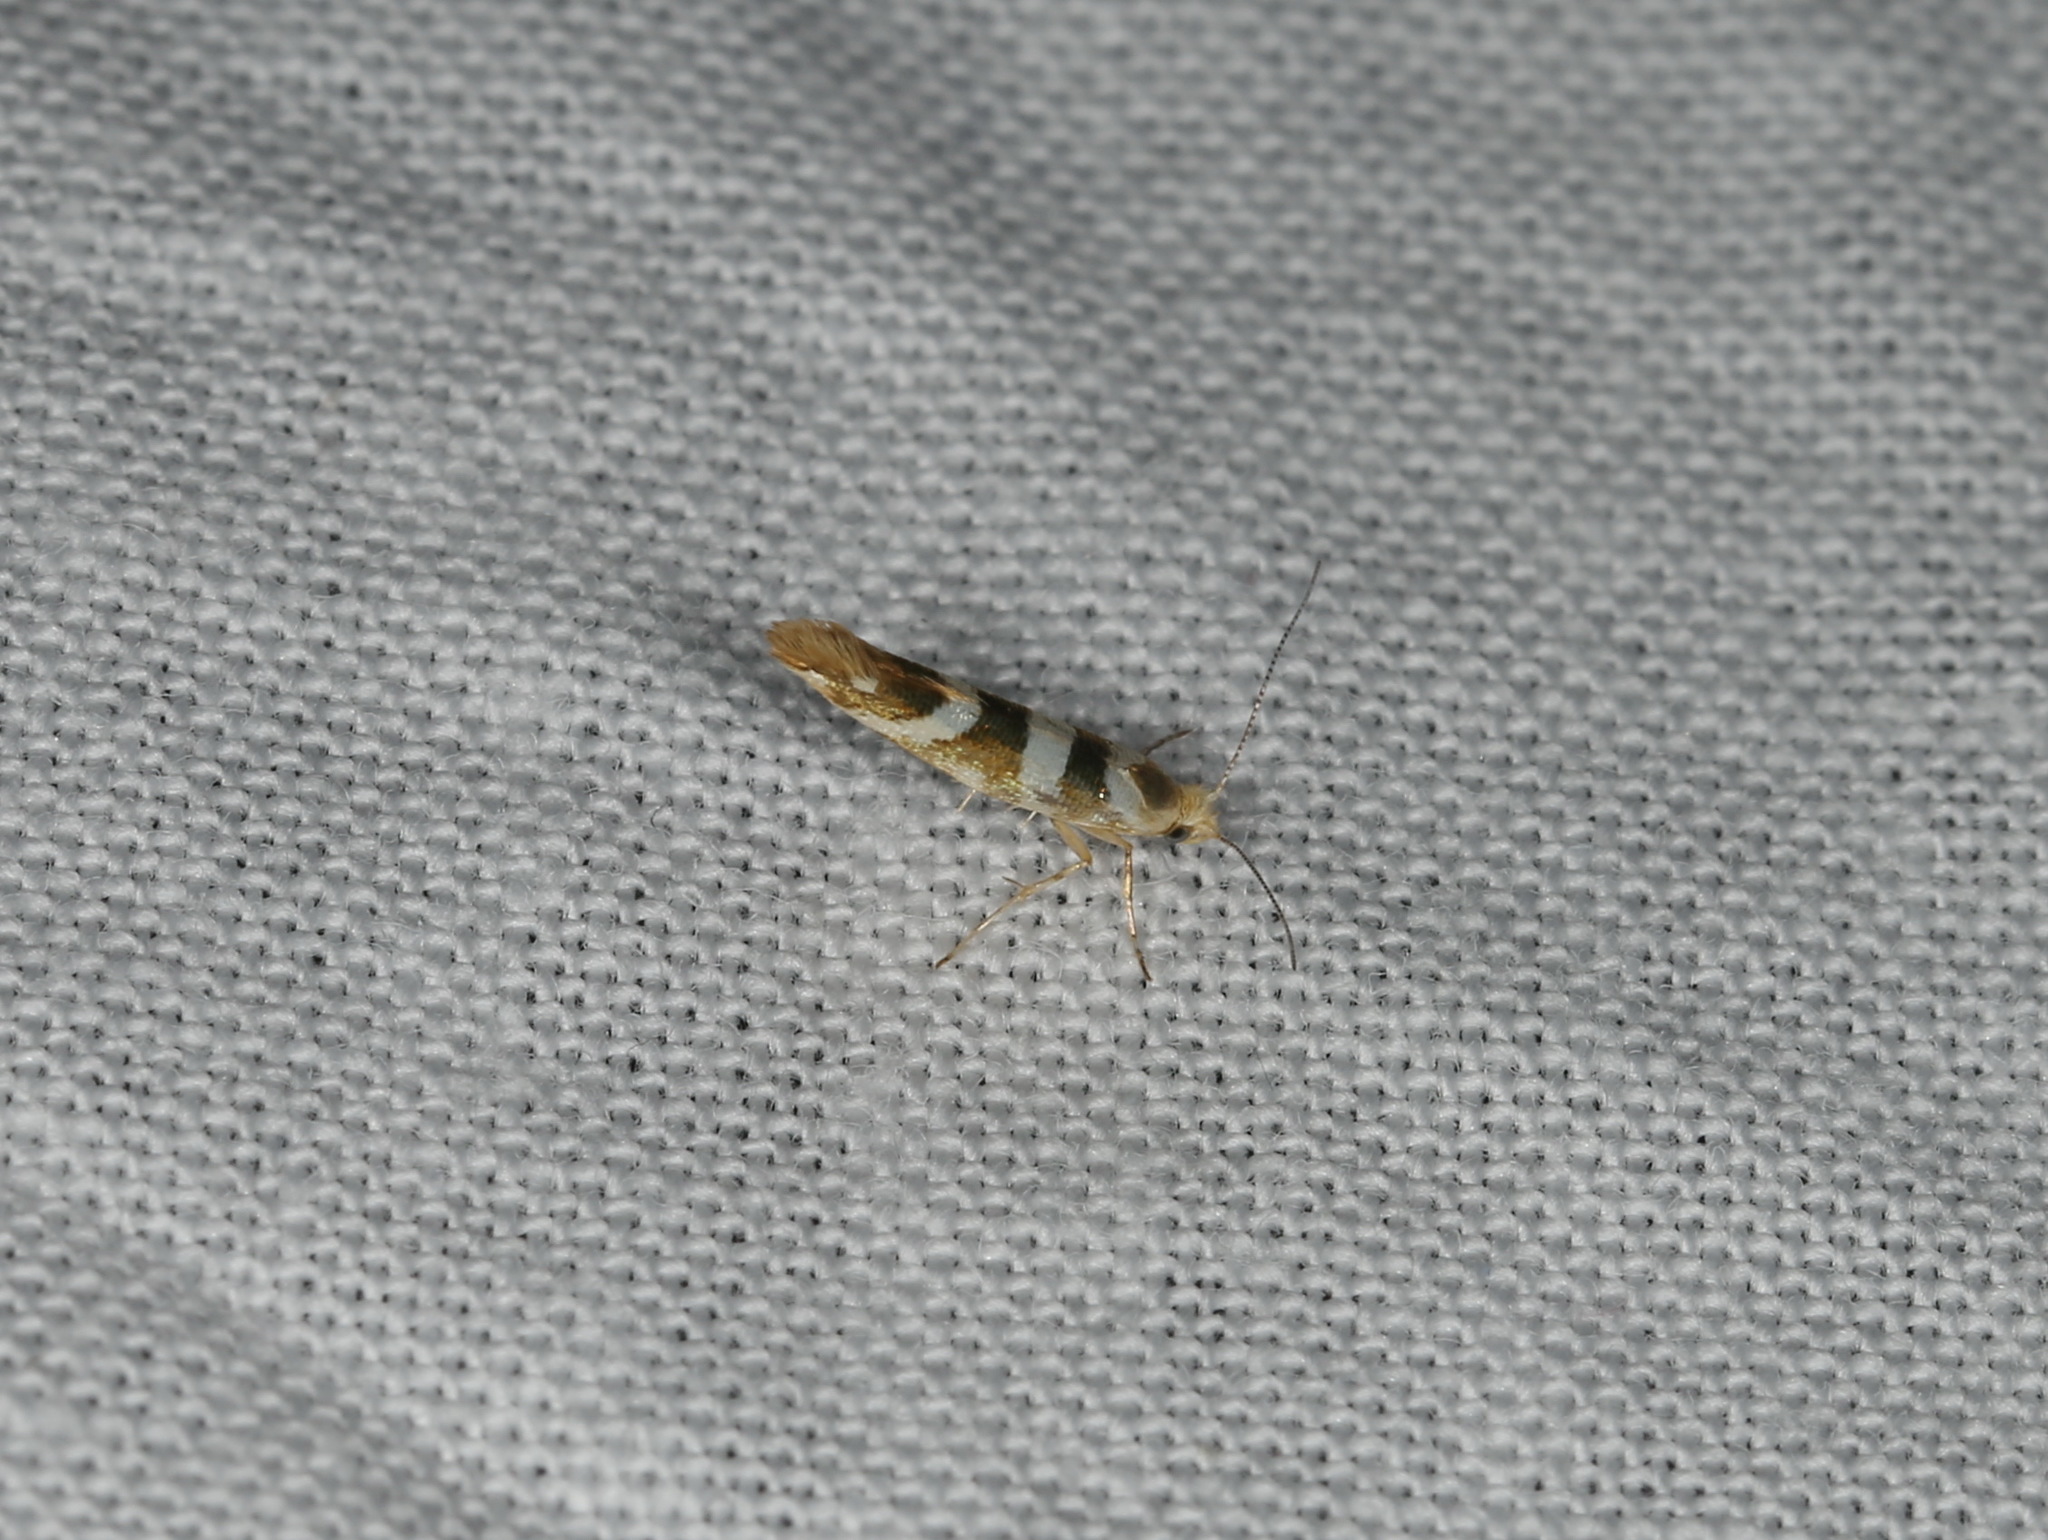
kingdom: Animalia
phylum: Arthropoda
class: Insecta
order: Lepidoptera
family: Argyresthiidae
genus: Argyresthia
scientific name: Argyresthia goedartella
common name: Golden argent
